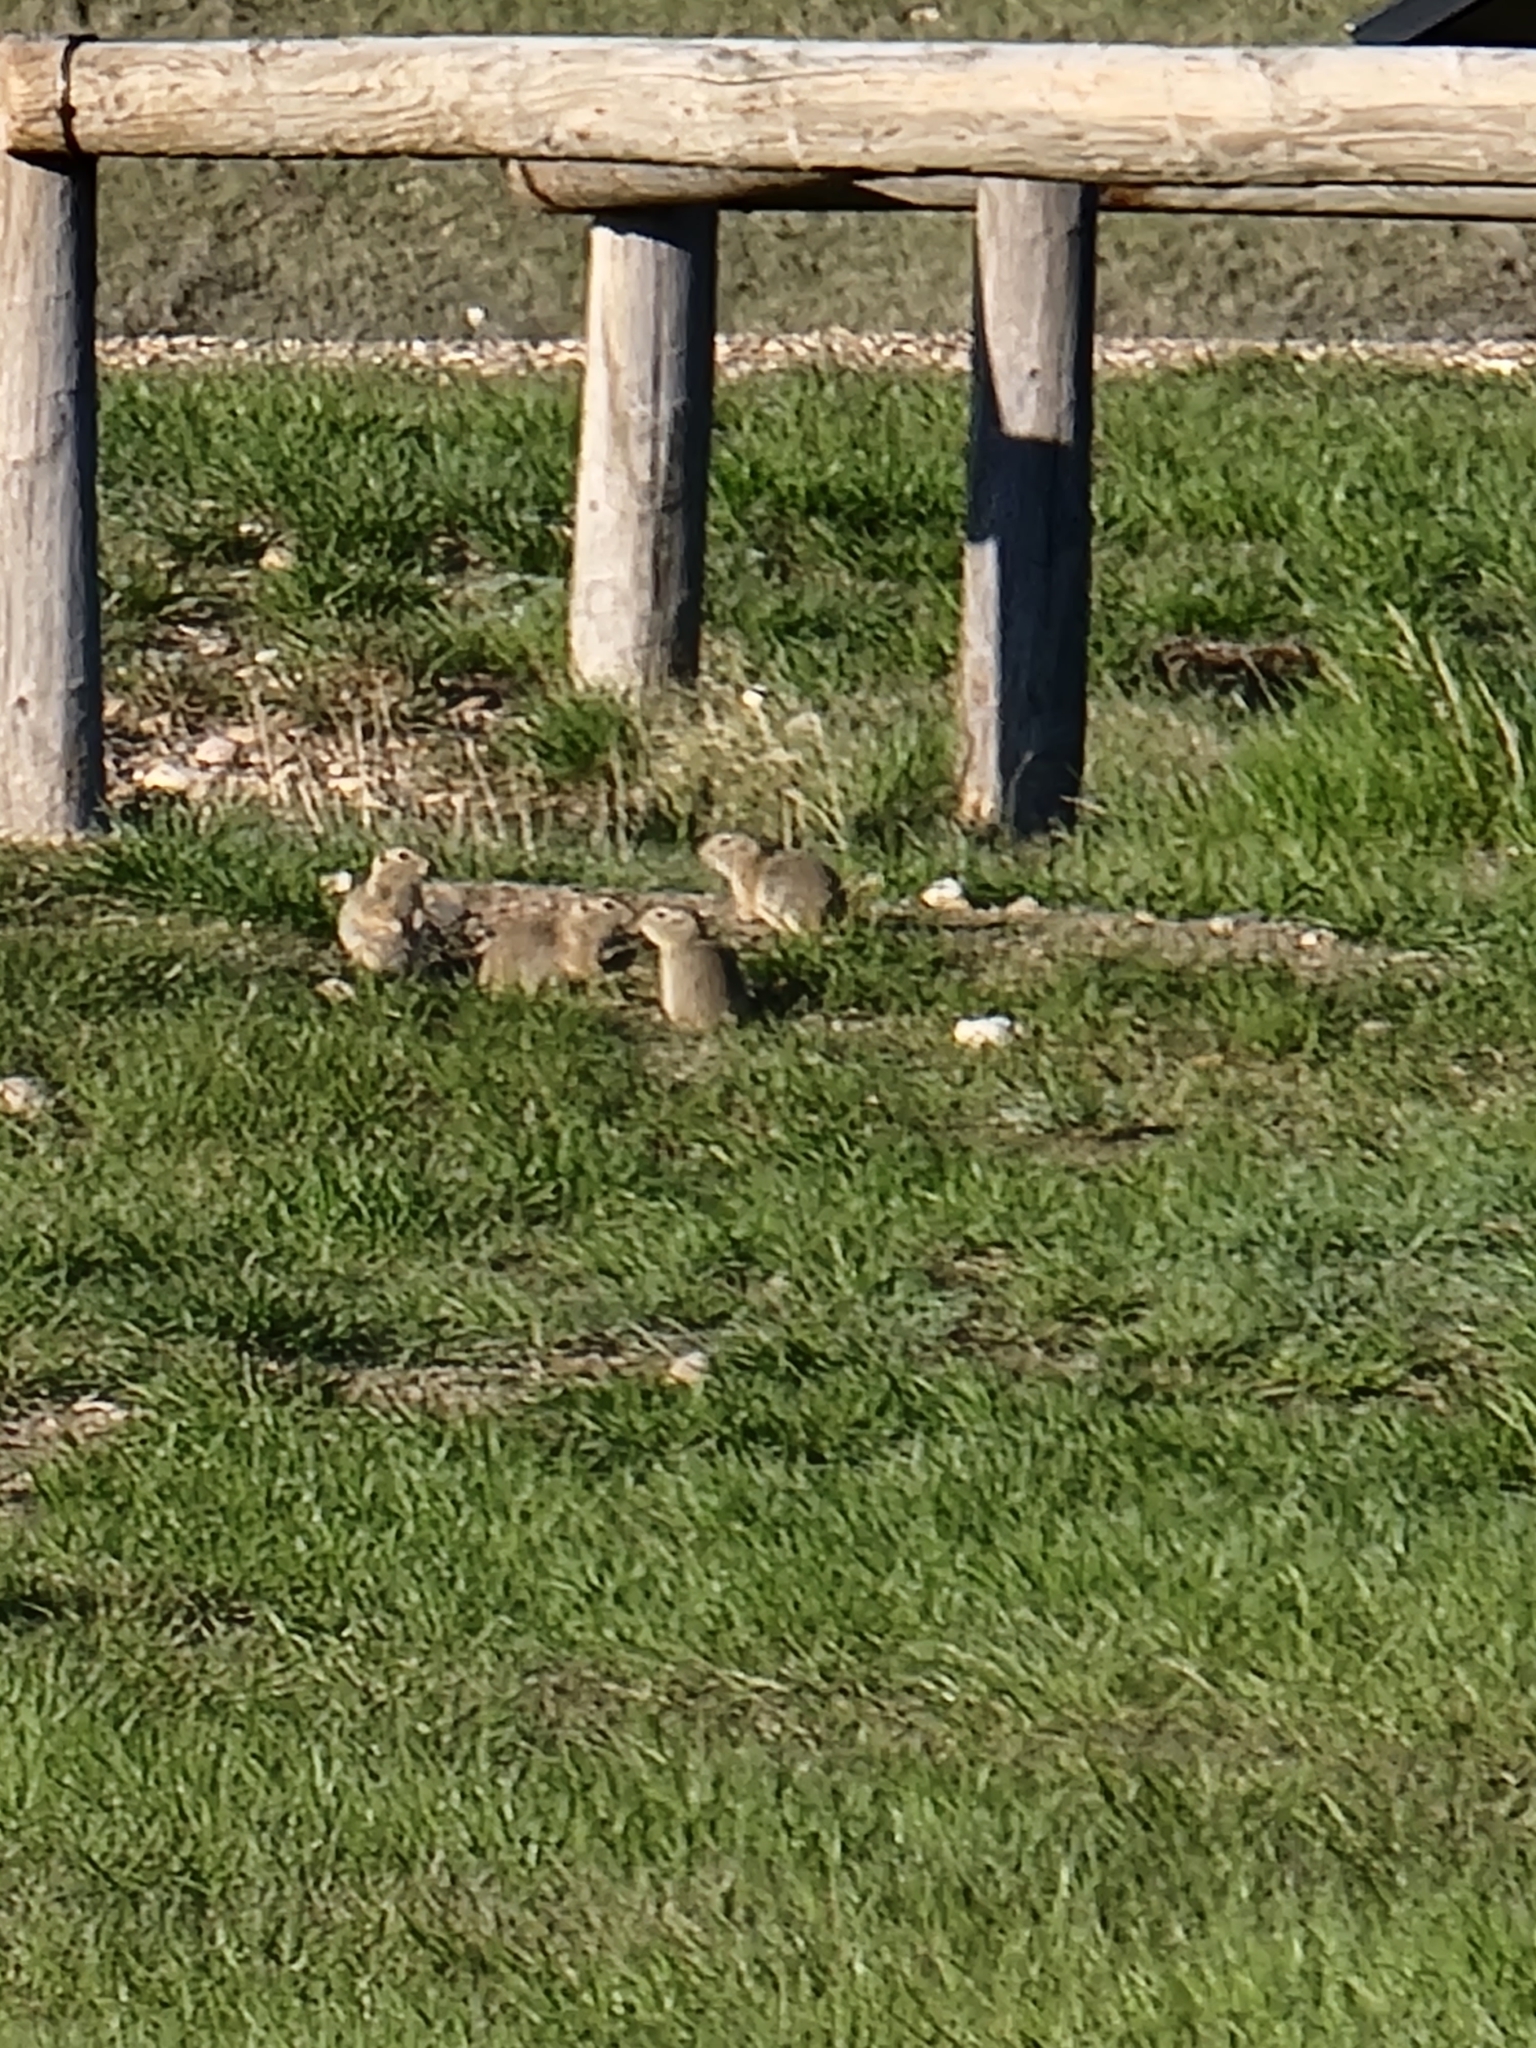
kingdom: Animalia
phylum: Chordata
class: Mammalia
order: Rodentia
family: Sciuridae
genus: Urocitellus
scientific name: Urocitellus richardsonii
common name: Richardson's ground squirrel
